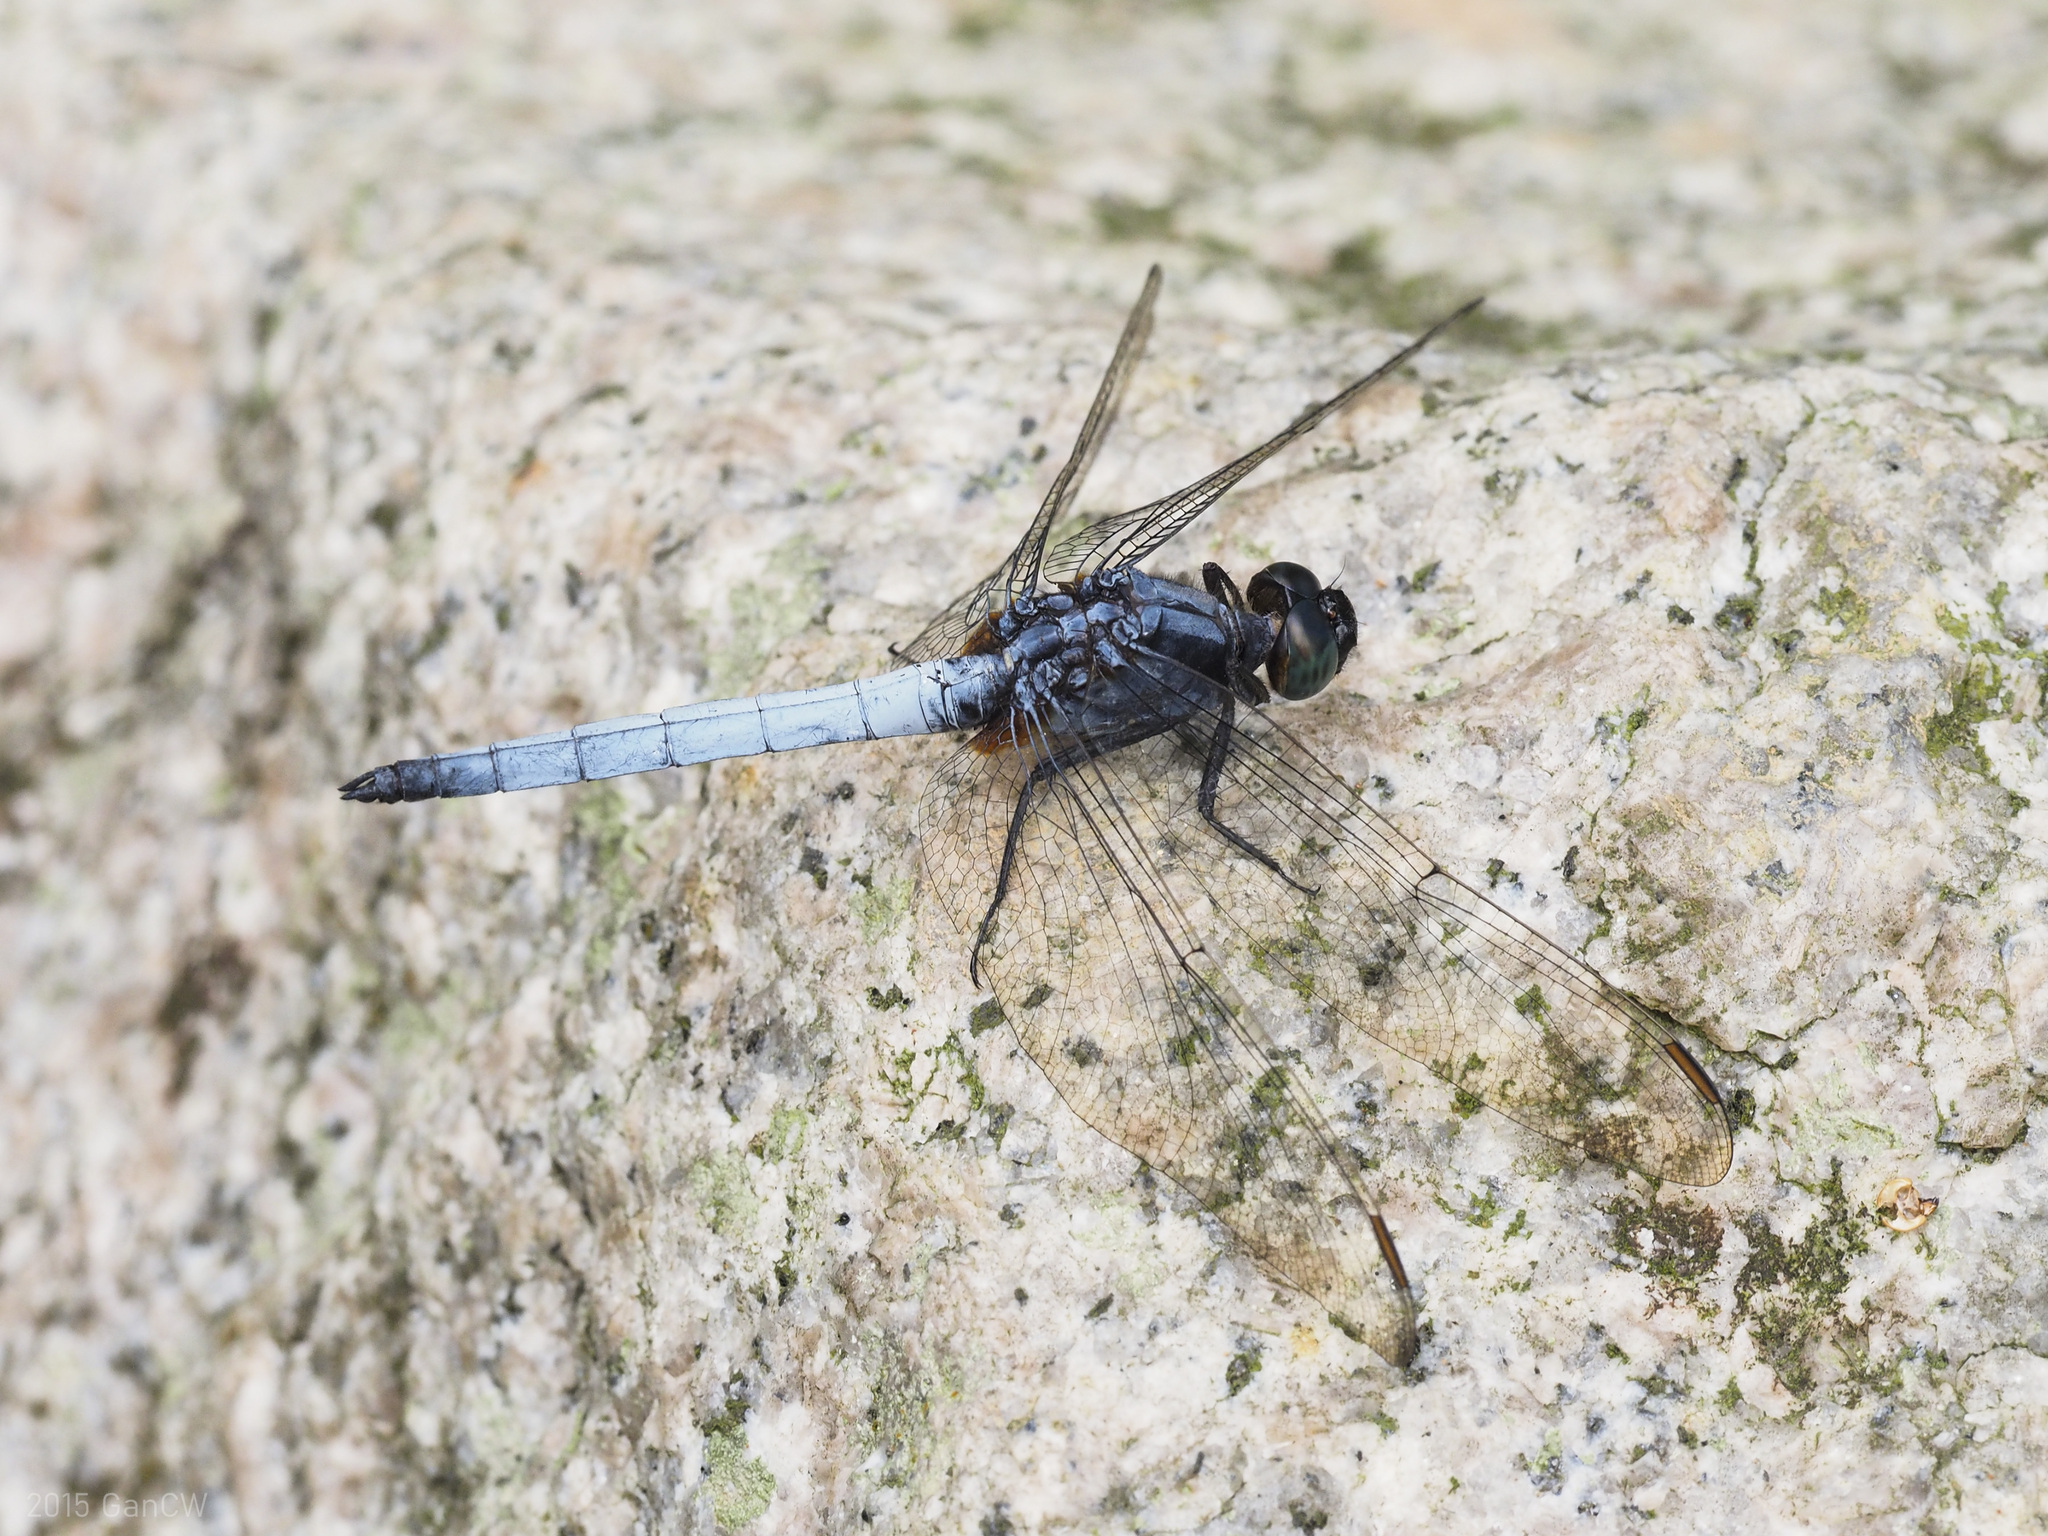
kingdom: Animalia
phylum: Arthropoda
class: Insecta
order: Odonata
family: Libellulidae
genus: Orthetrum
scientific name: Orthetrum glaucum
